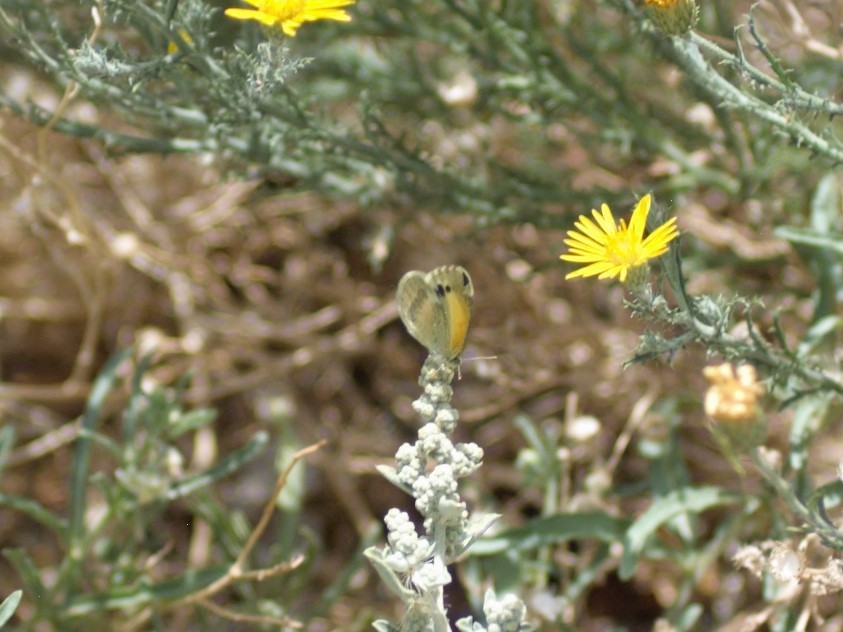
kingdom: Animalia
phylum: Arthropoda
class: Insecta
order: Lepidoptera
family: Pieridae
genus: Nathalis
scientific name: Nathalis iole
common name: Dainty sulphur
